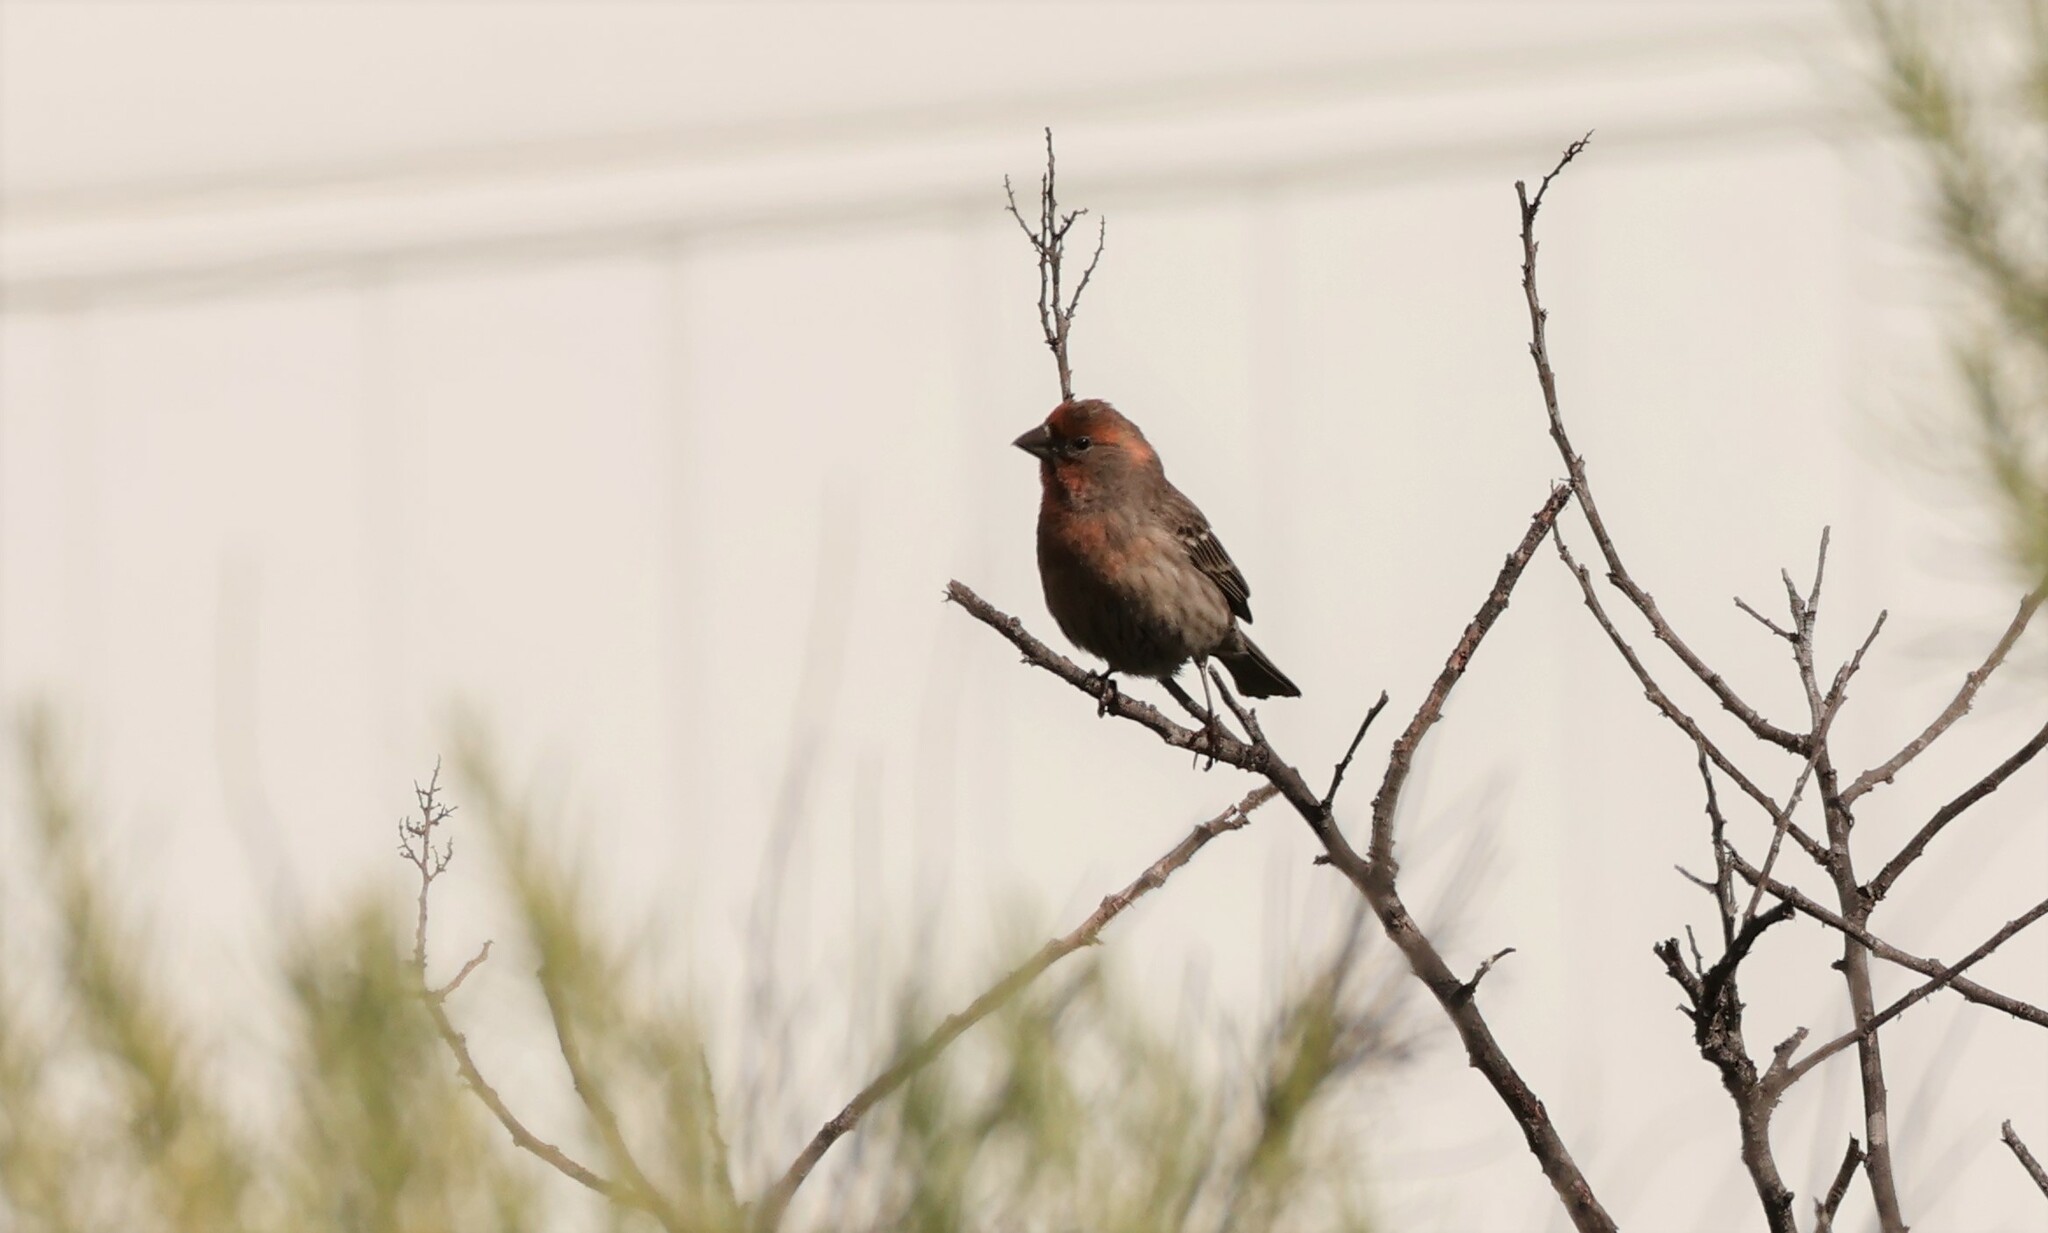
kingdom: Animalia
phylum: Chordata
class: Aves
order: Passeriformes
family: Fringillidae
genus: Haemorhous
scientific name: Haemorhous mexicanus
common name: House finch
